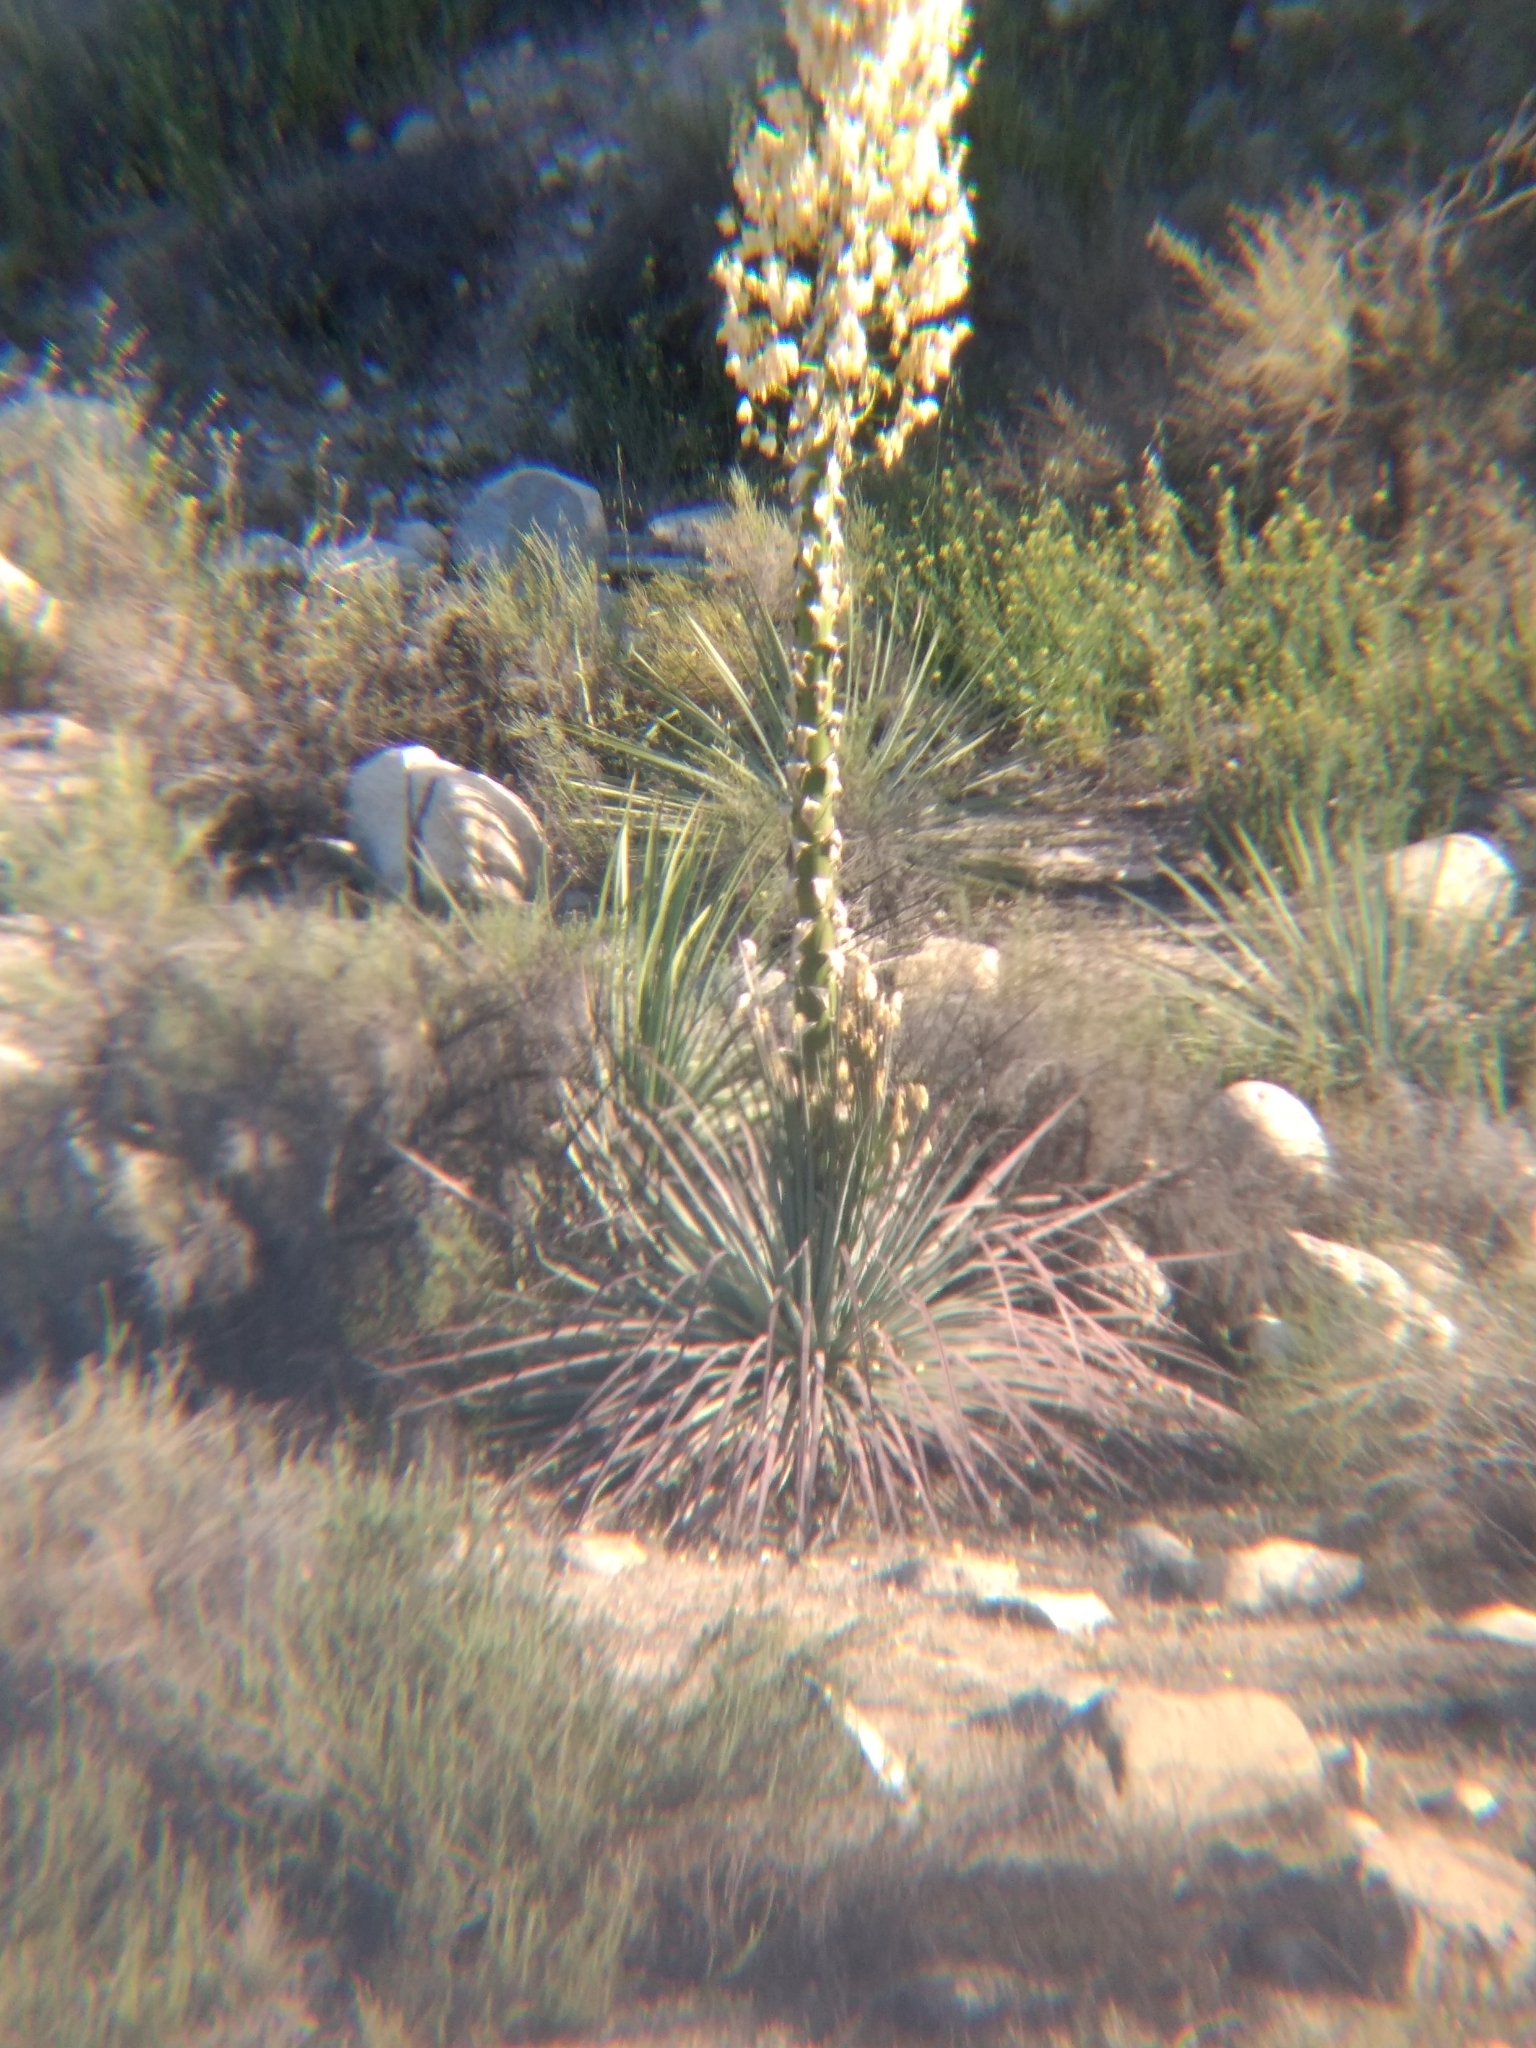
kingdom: Plantae
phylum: Tracheophyta
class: Liliopsida
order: Asparagales
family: Asparagaceae
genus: Hesperoyucca
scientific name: Hesperoyucca whipplei
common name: Our lord's-candle
